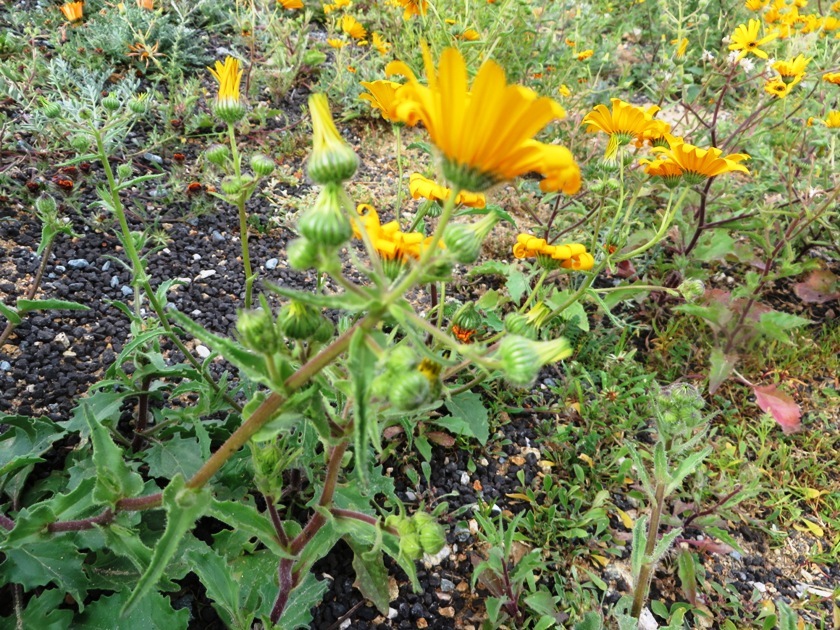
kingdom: Plantae
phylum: Tracheophyta
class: Magnoliopsida
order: Asterales
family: Asteraceae
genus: Osteospermum
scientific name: Osteospermum amplectens
